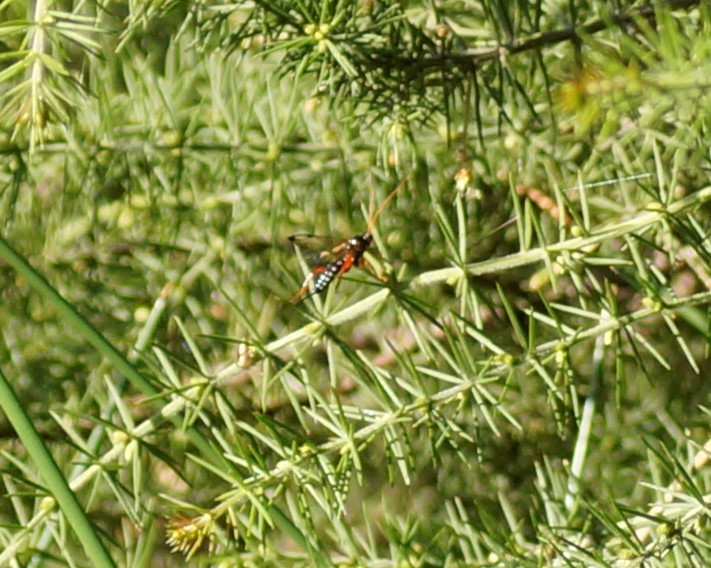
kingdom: Animalia
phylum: Arthropoda
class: Insecta
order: Hymenoptera
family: Ichneumonidae
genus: Echthromorpha
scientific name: Echthromorpha intricatoria
